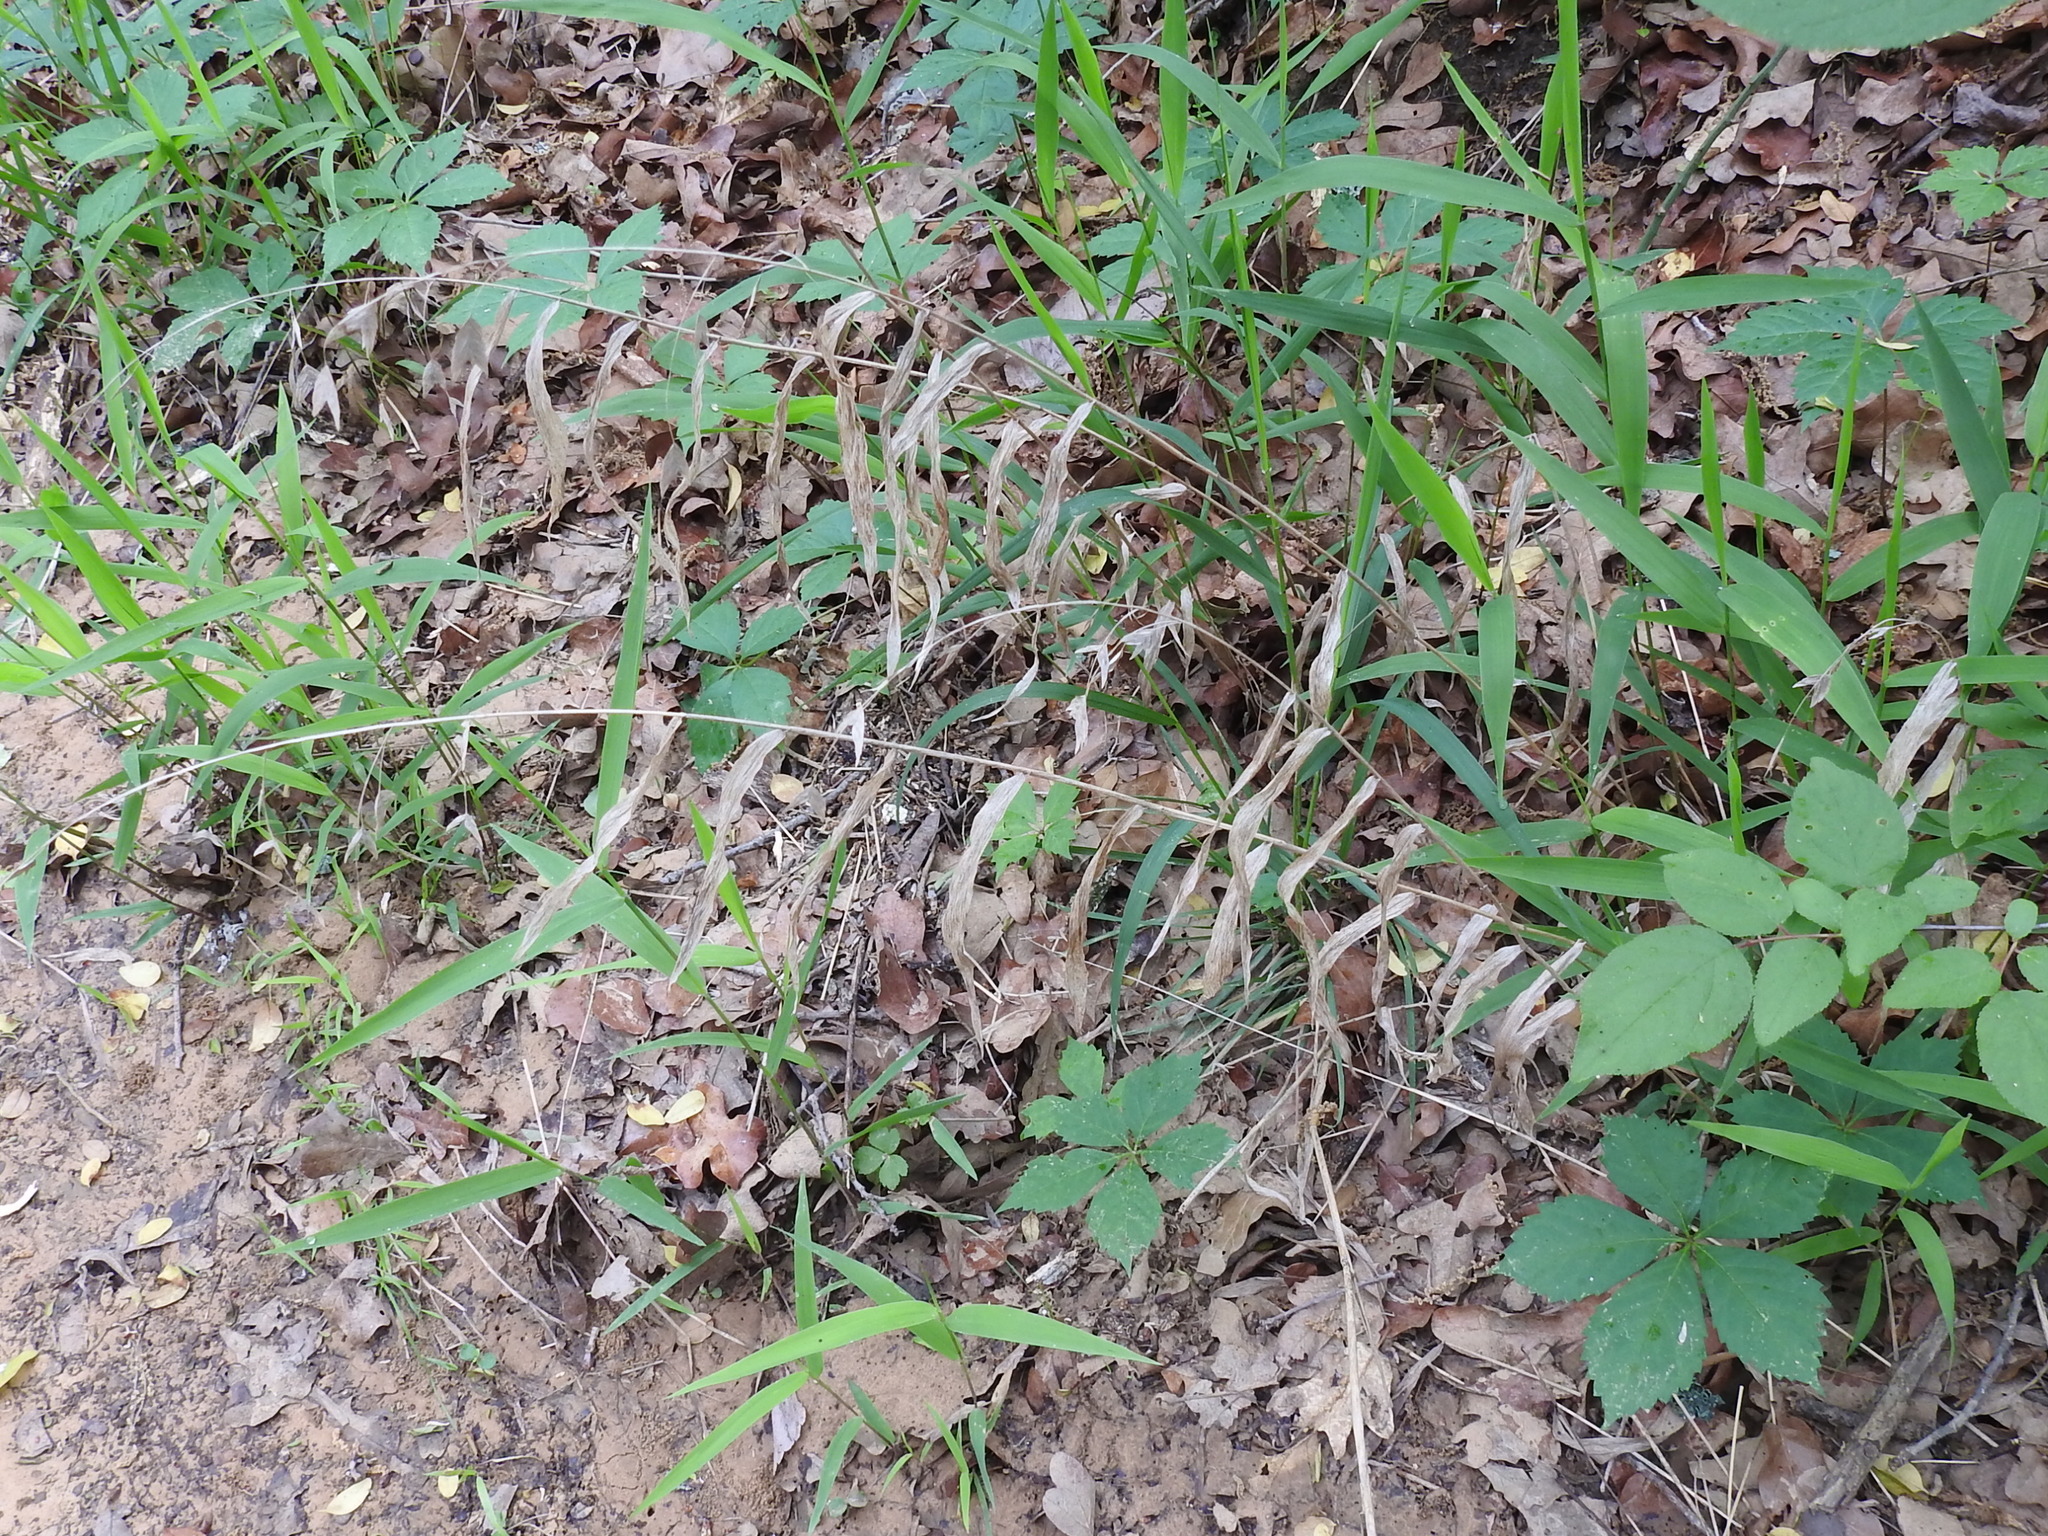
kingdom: Plantae
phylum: Tracheophyta
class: Liliopsida
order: Poales
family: Poaceae
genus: Chasmanthium
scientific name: Chasmanthium latifolium
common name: Broad-leaved chasmanthium
